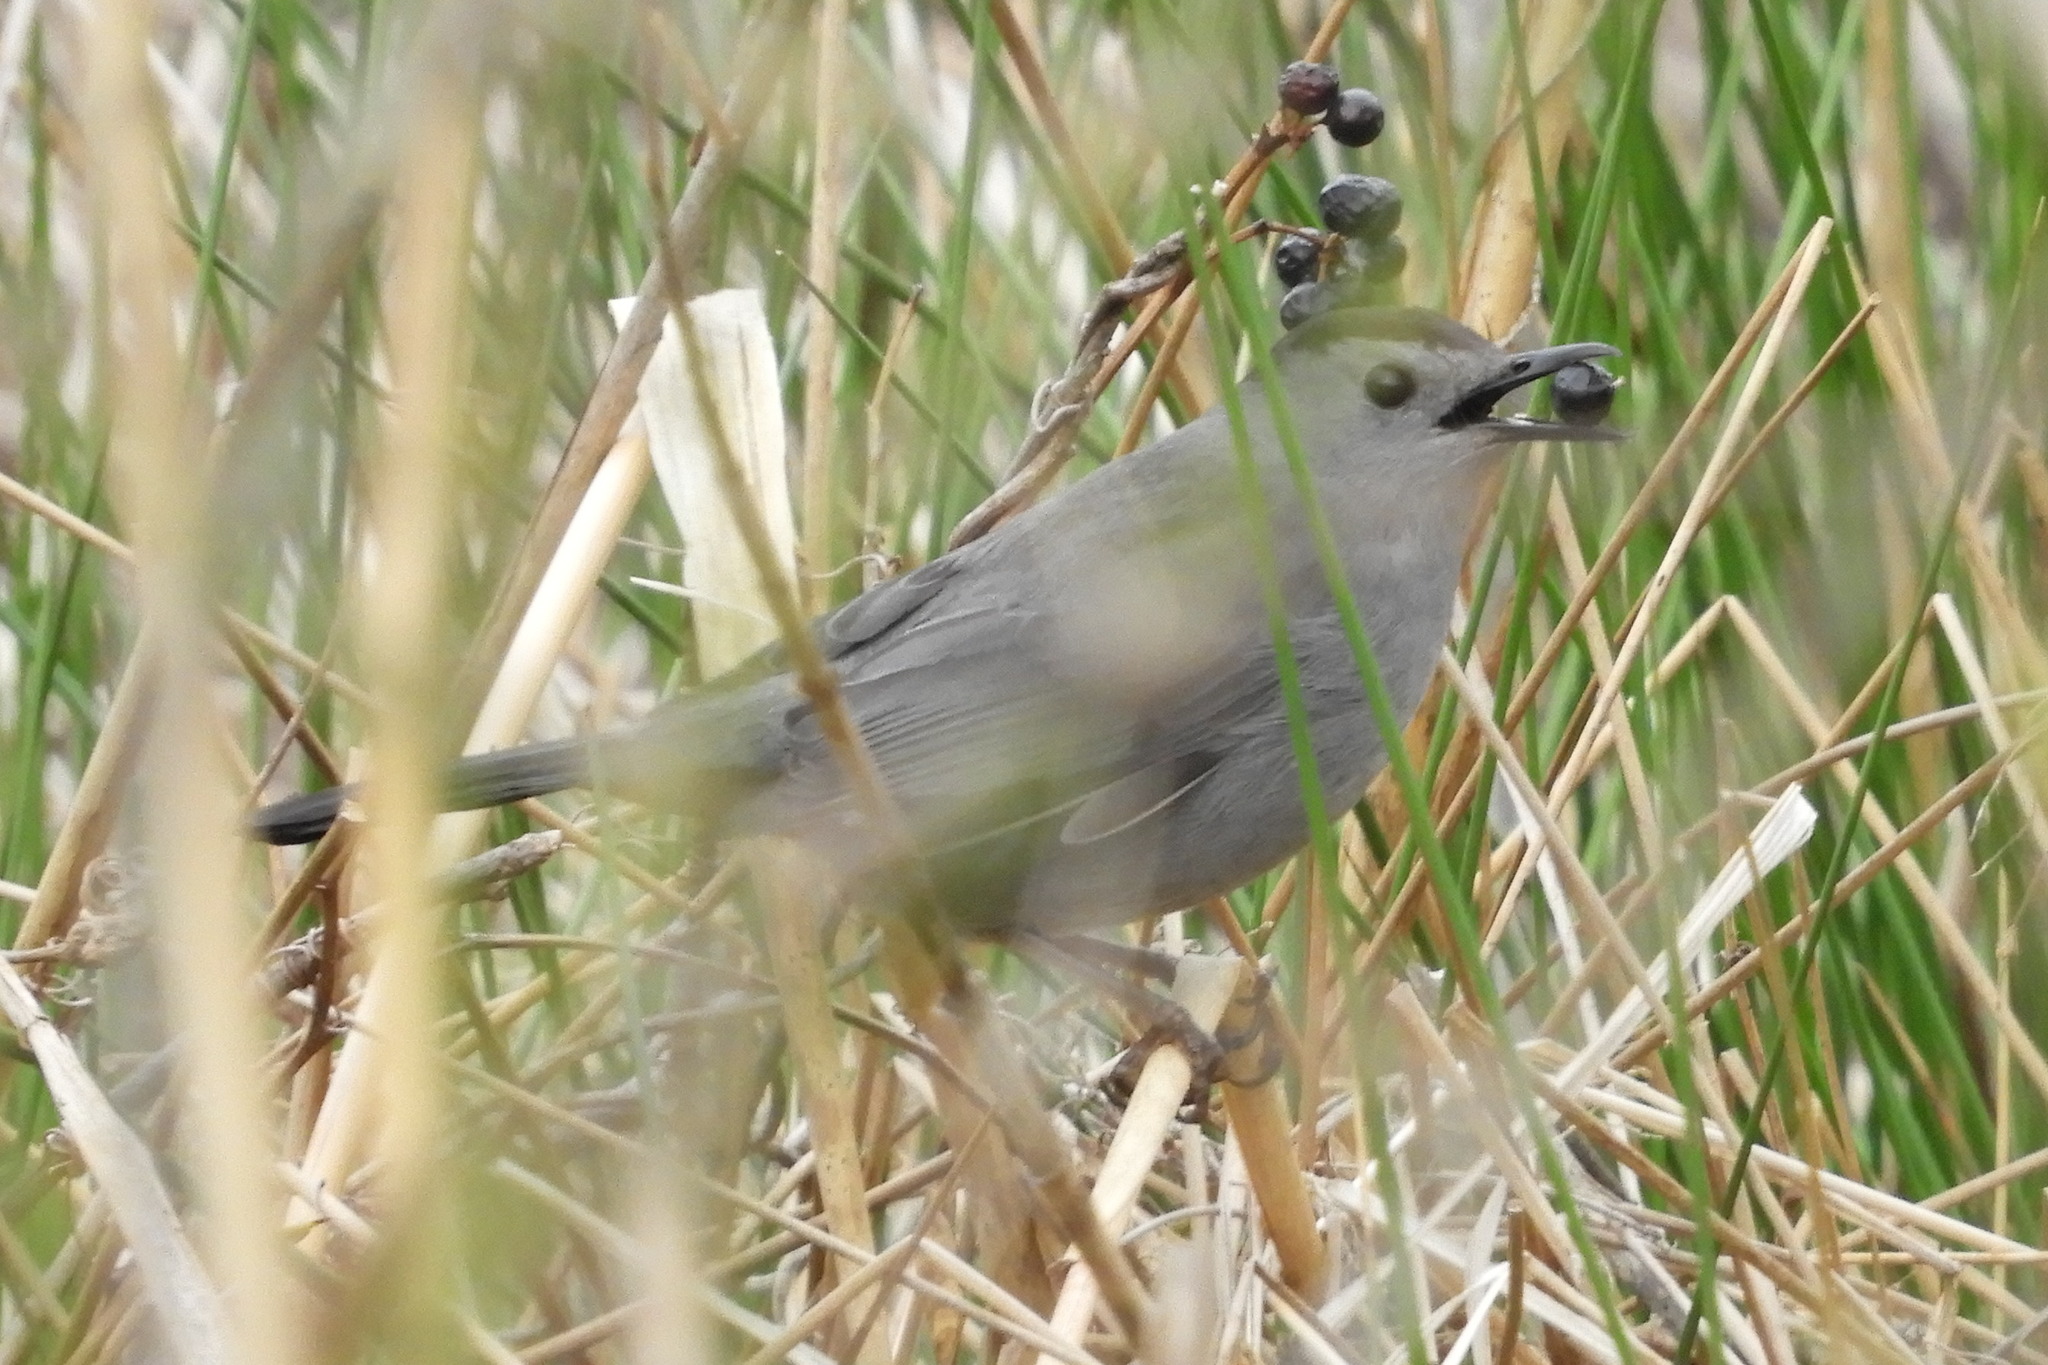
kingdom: Animalia
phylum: Chordata
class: Aves
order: Passeriformes
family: Mimidae
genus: Dumetella
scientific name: Dumetella carolinensis
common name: Gray catbird
